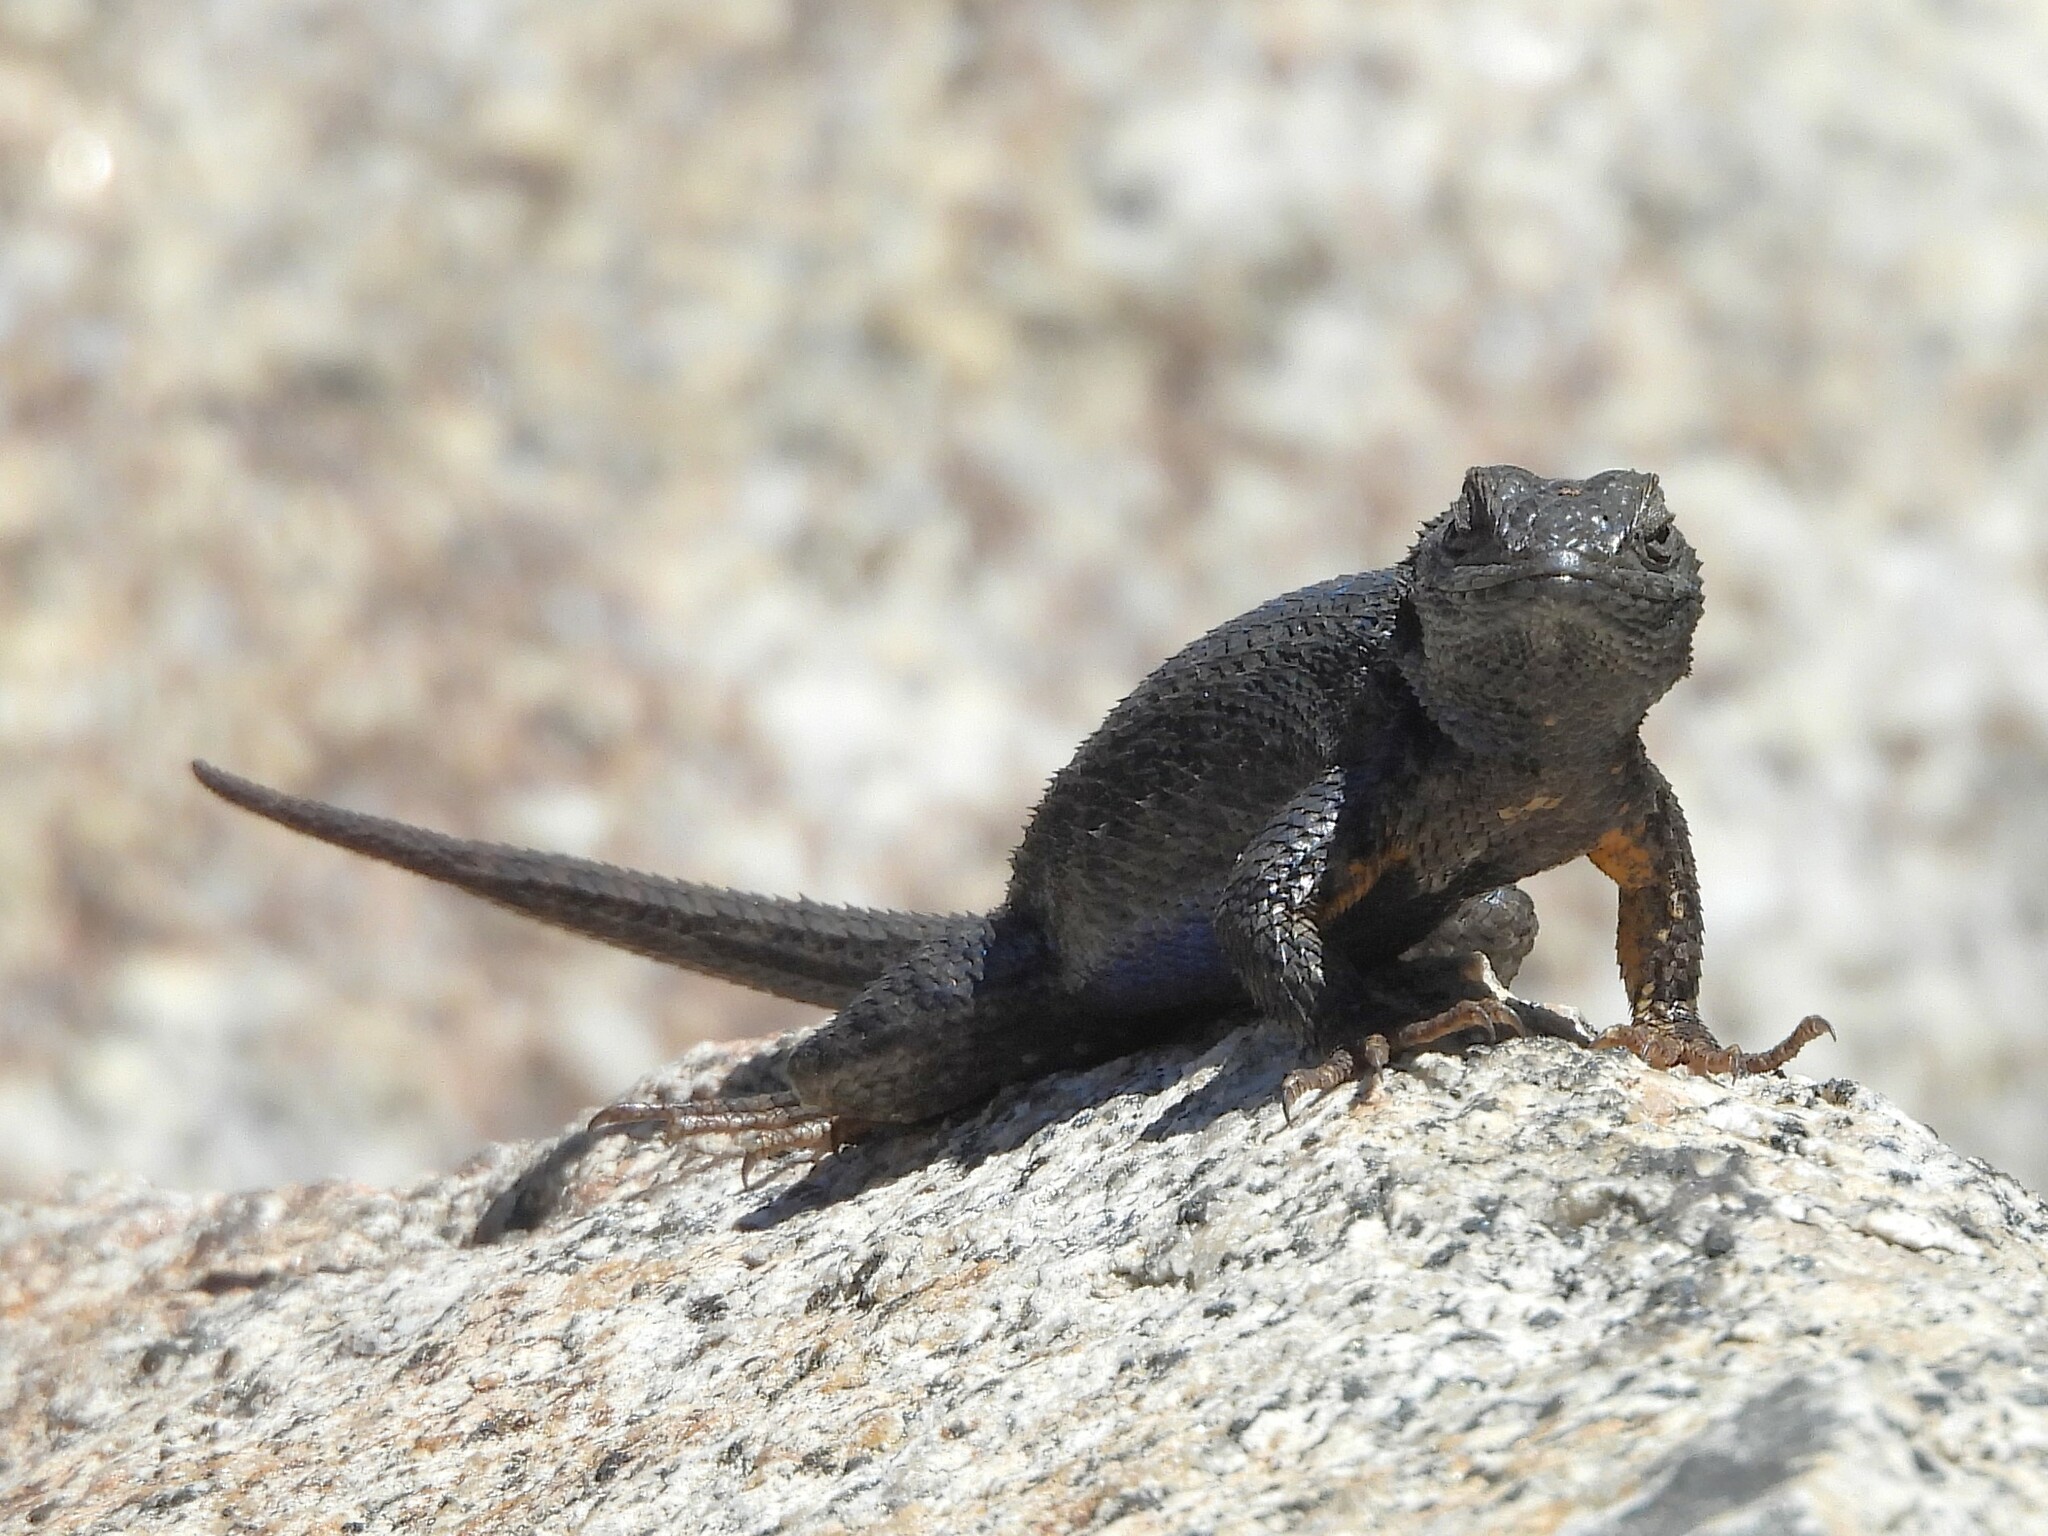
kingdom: Animalia
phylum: Chordata
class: Squamata
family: Phrynosomatidae
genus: Sceloporus
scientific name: Sceloporus occidentalis
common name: Western fence lizard
